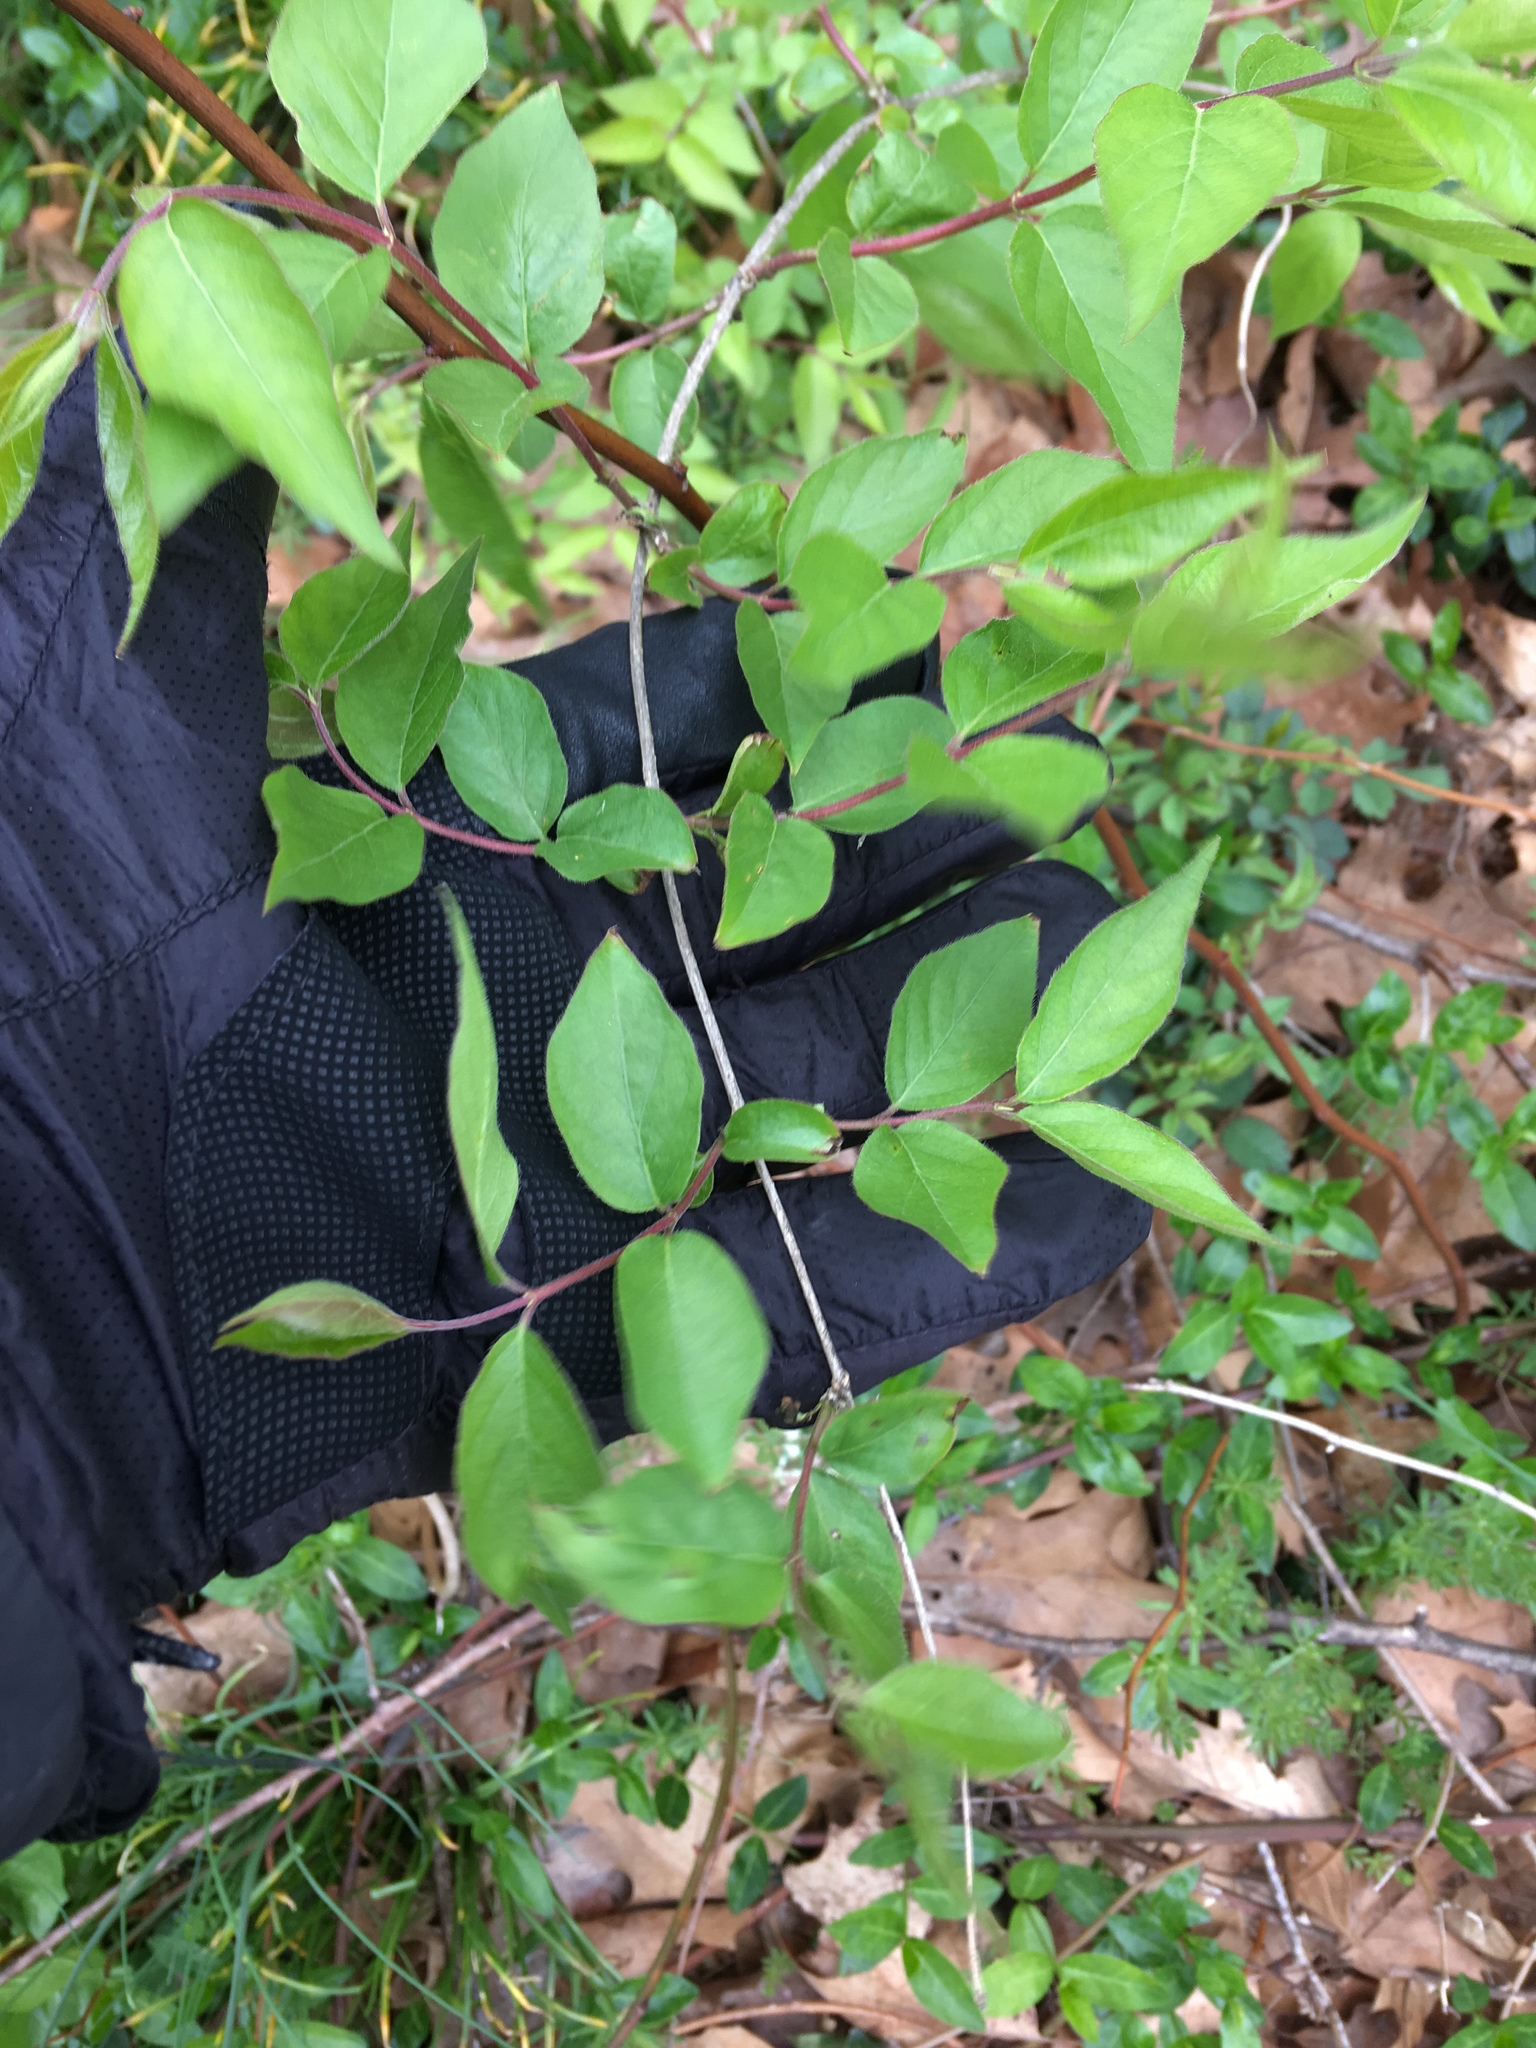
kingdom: Plantae
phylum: Tracheophyta
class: Magnoliopsida
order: Dipsacales
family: Caprifoliaceae
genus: Lonicera
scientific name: Lonicera maackii
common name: Amur honeysuckle
